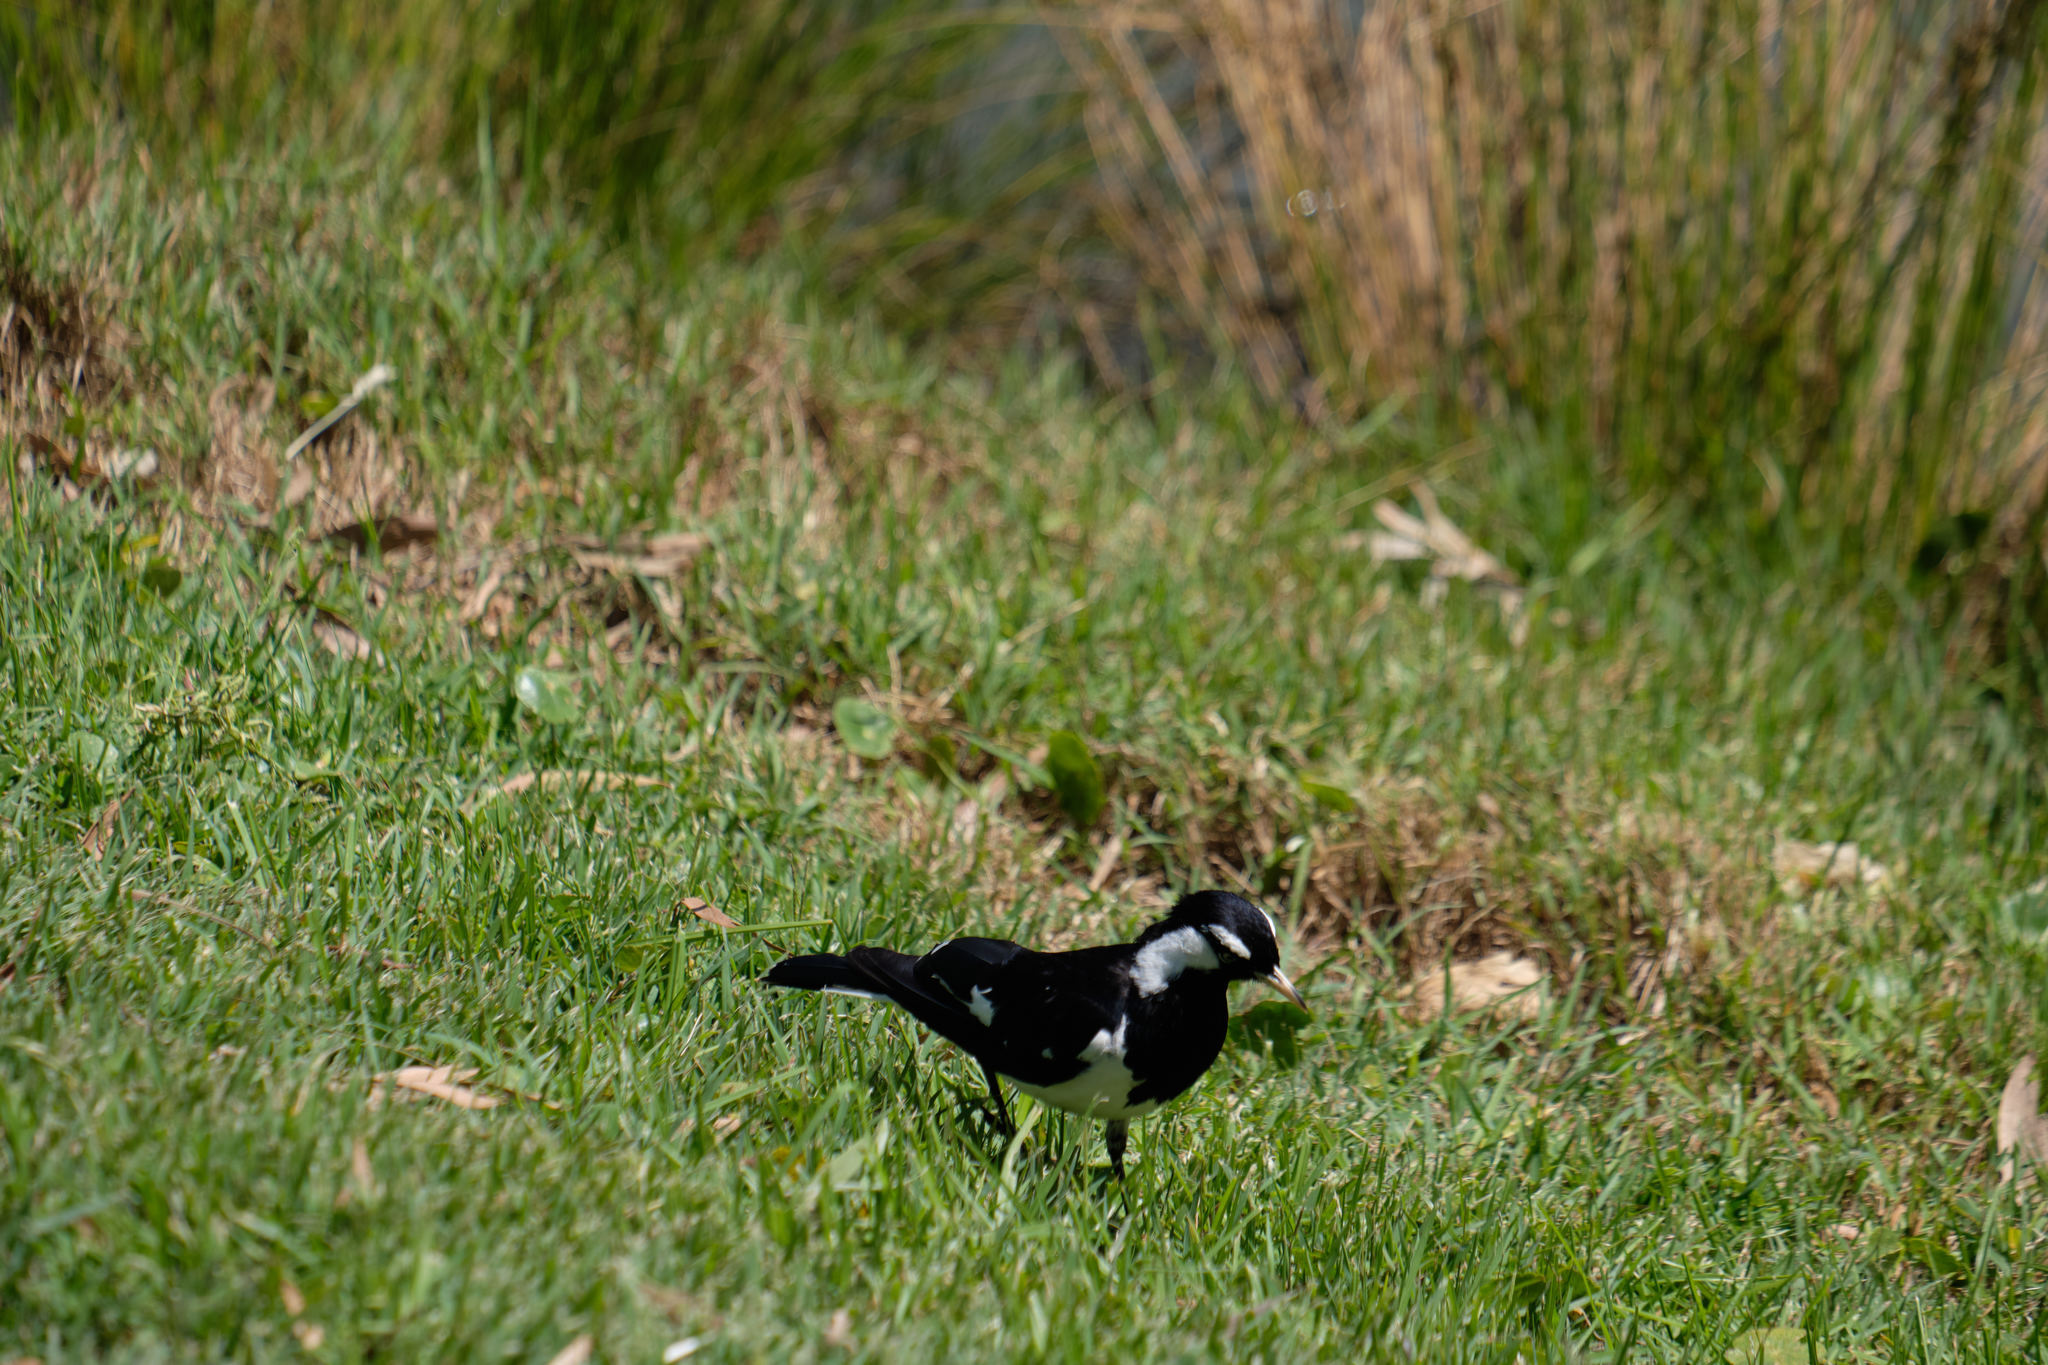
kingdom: Animalia
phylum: Chordata
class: Aves
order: Passeriformes
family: Monarchidae
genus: Grallina
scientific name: Grallina cyanoleuca
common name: Magpie-lark
